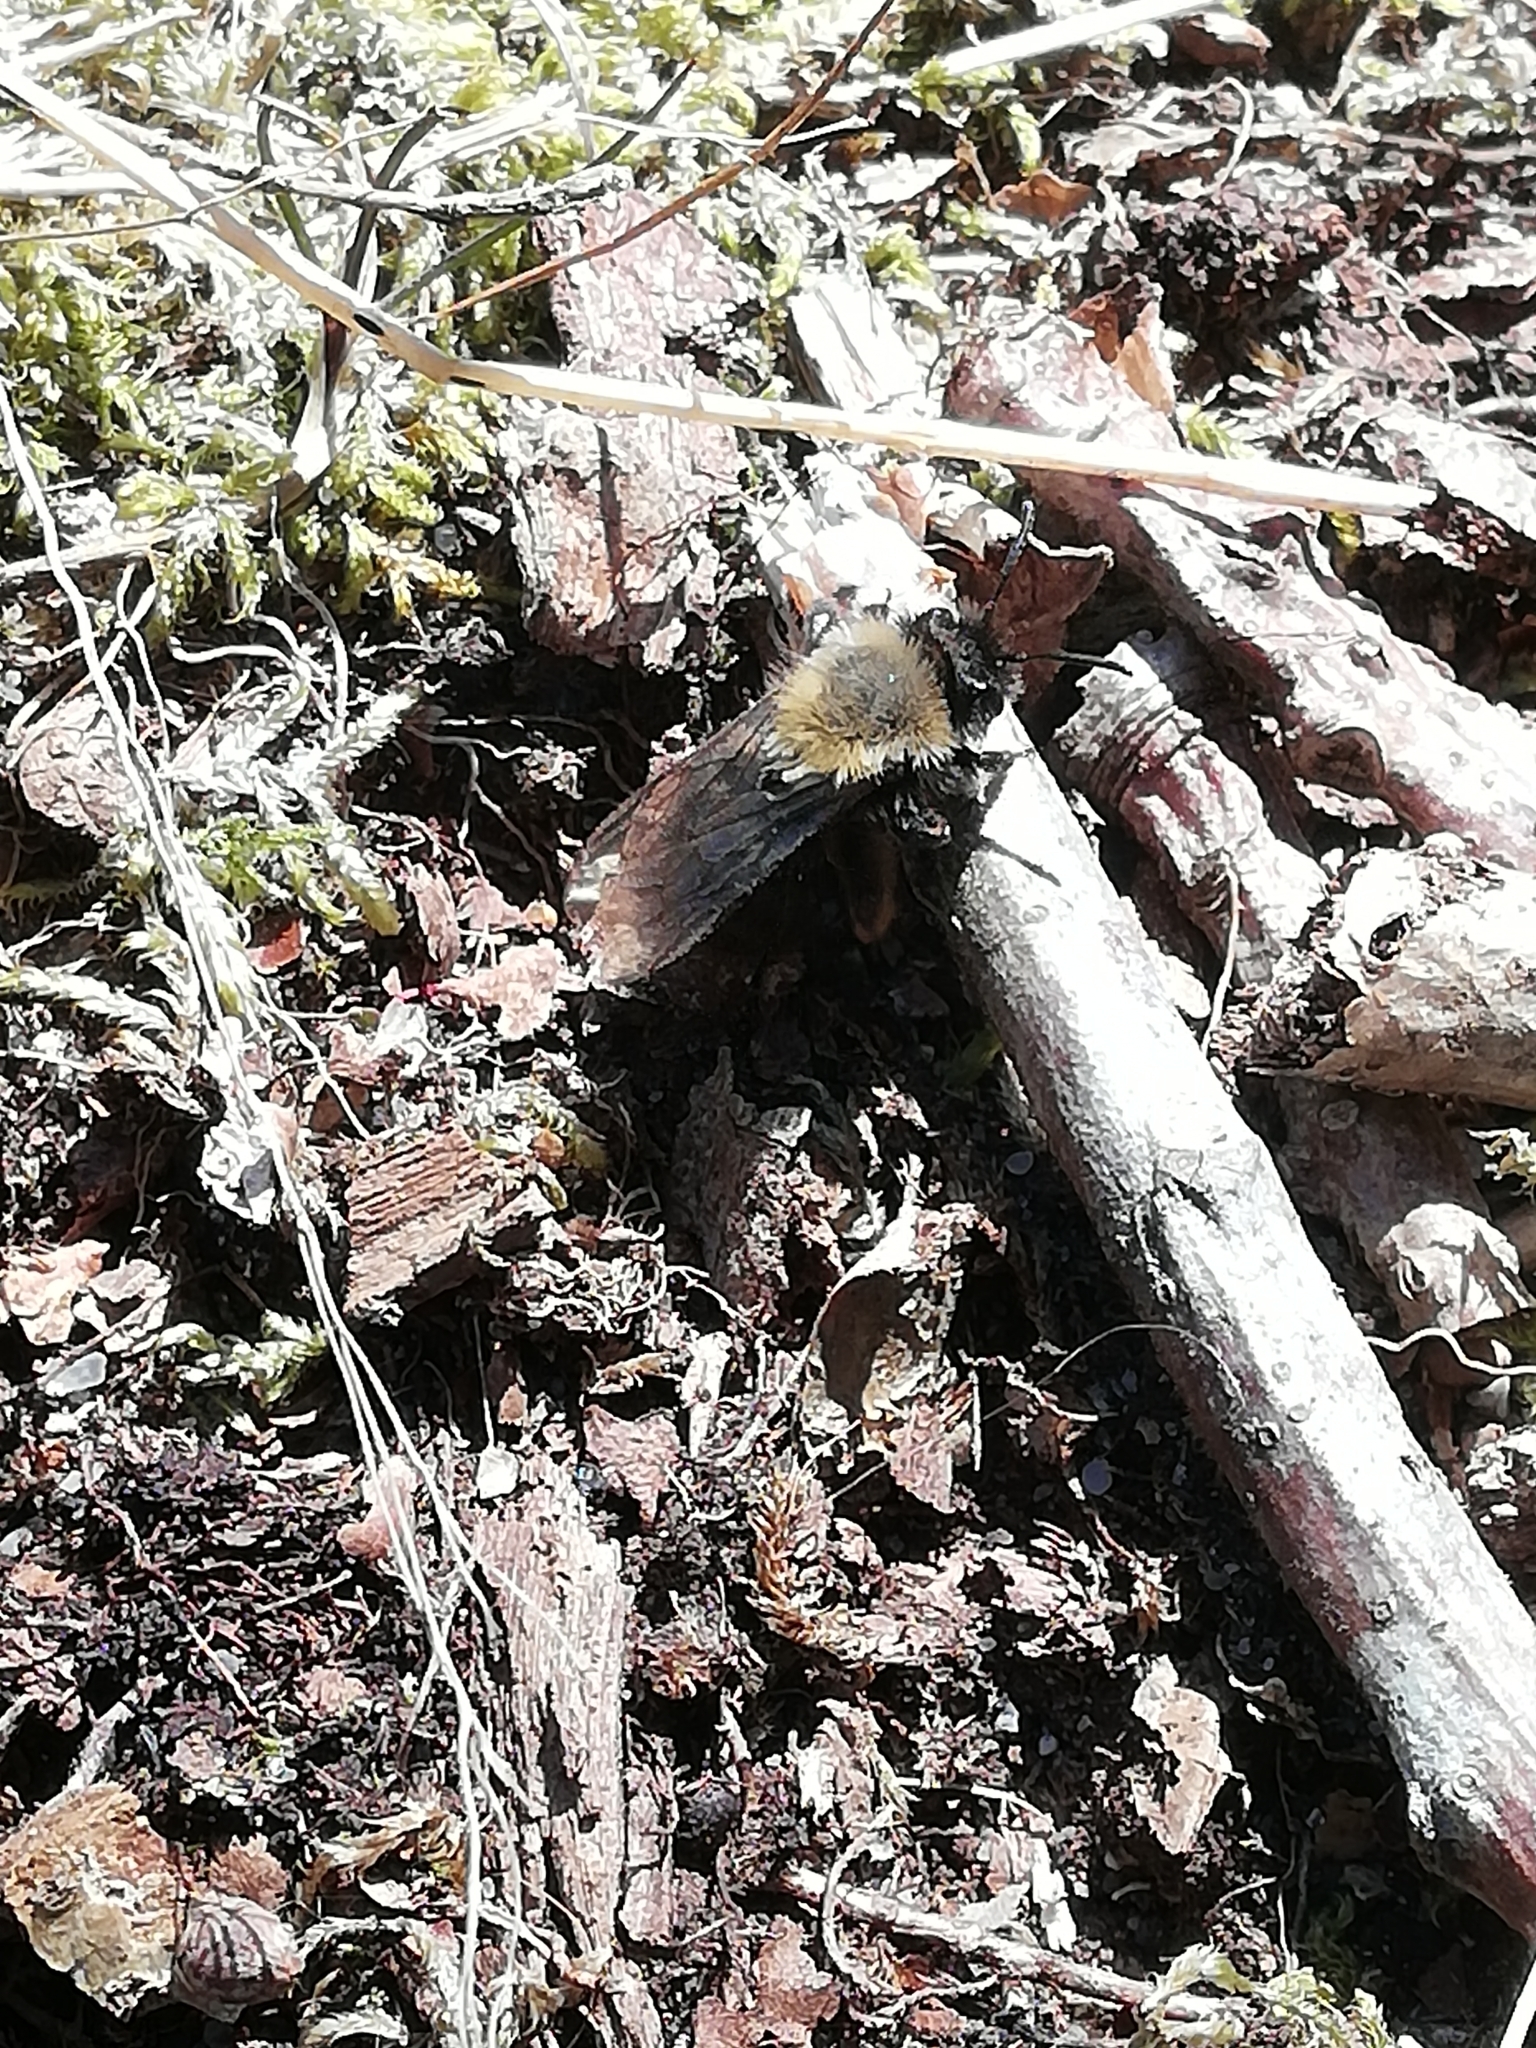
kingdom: Animalia
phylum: Arthropoda
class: Insecta
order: Hymenoptera
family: Andrenidae
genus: Andrena
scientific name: Andrena clarkella
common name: Clarke's mining bee
